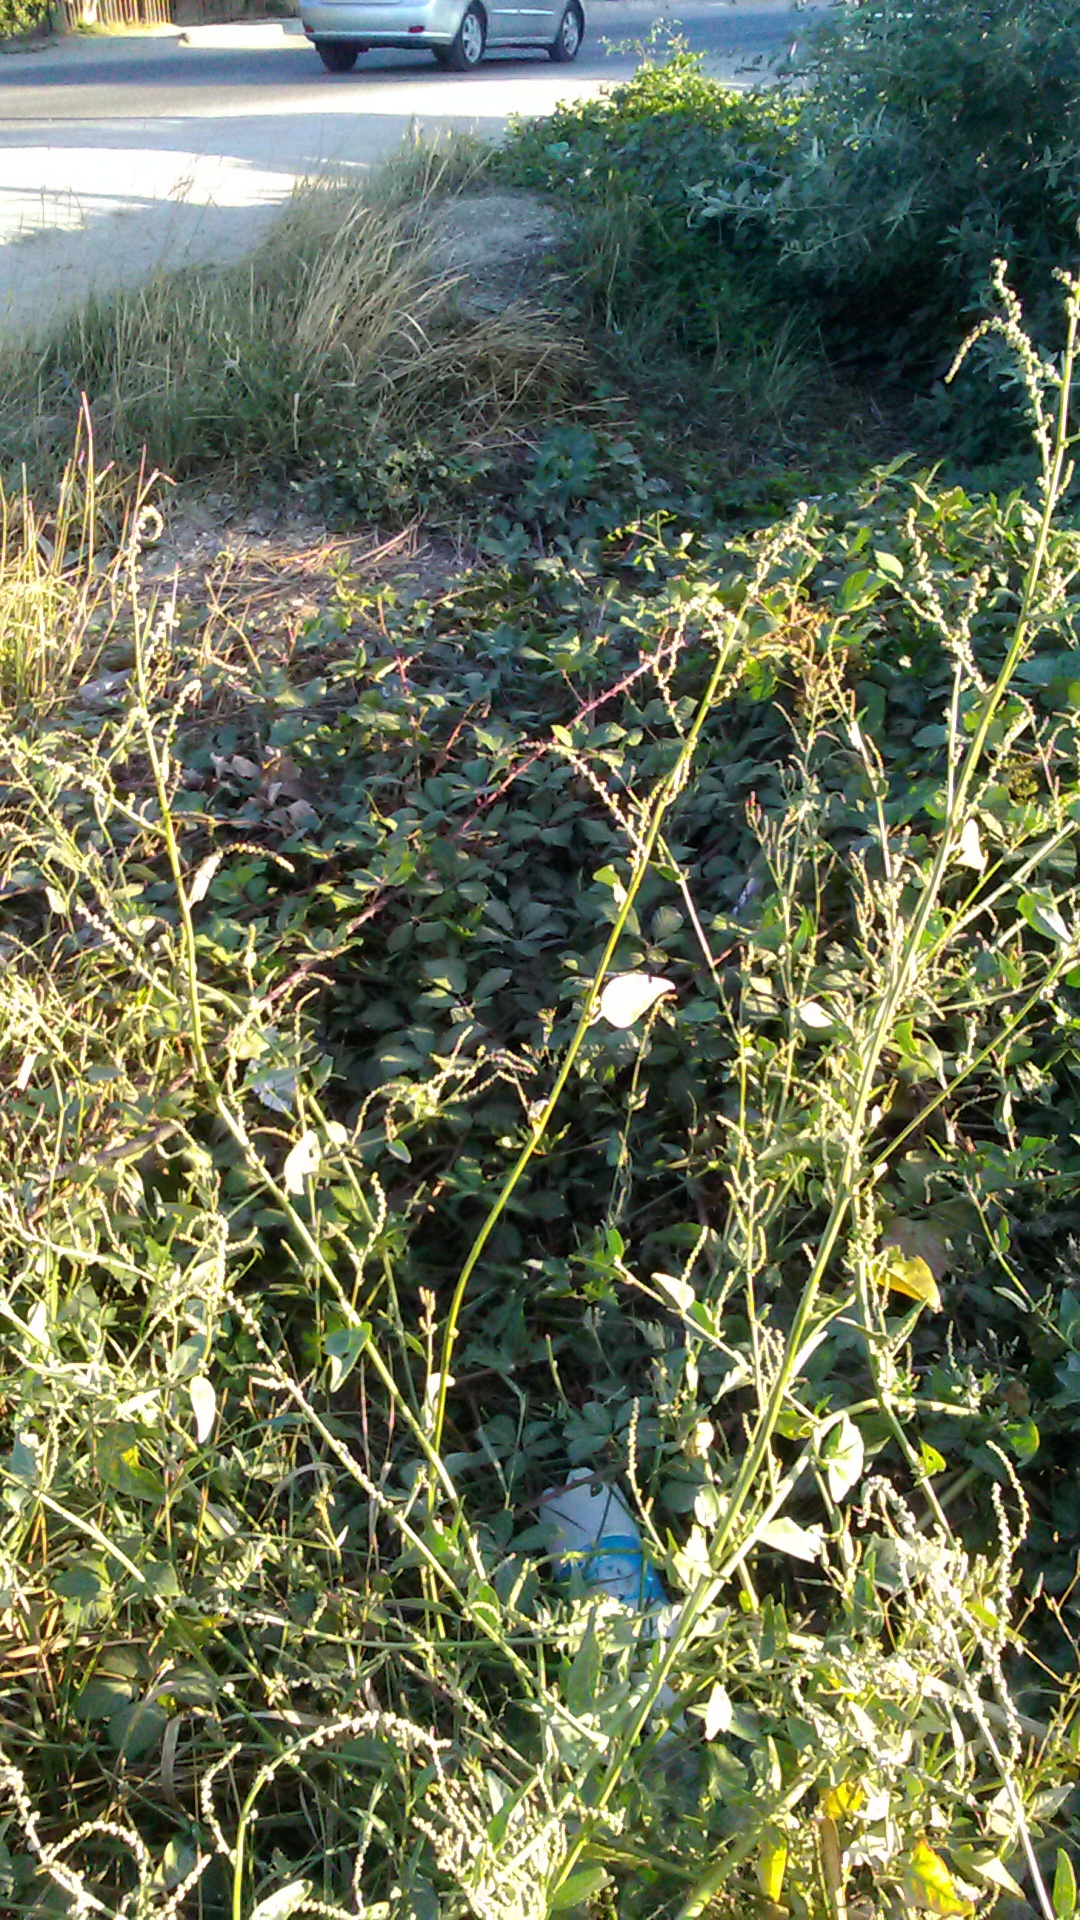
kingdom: Plantae
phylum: Tracheophyta
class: Magnoliopsida
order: Caryophyllales
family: Amaranthaceae
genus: Atriplex
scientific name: Atriplex micrantha
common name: Twoscale saltbush
